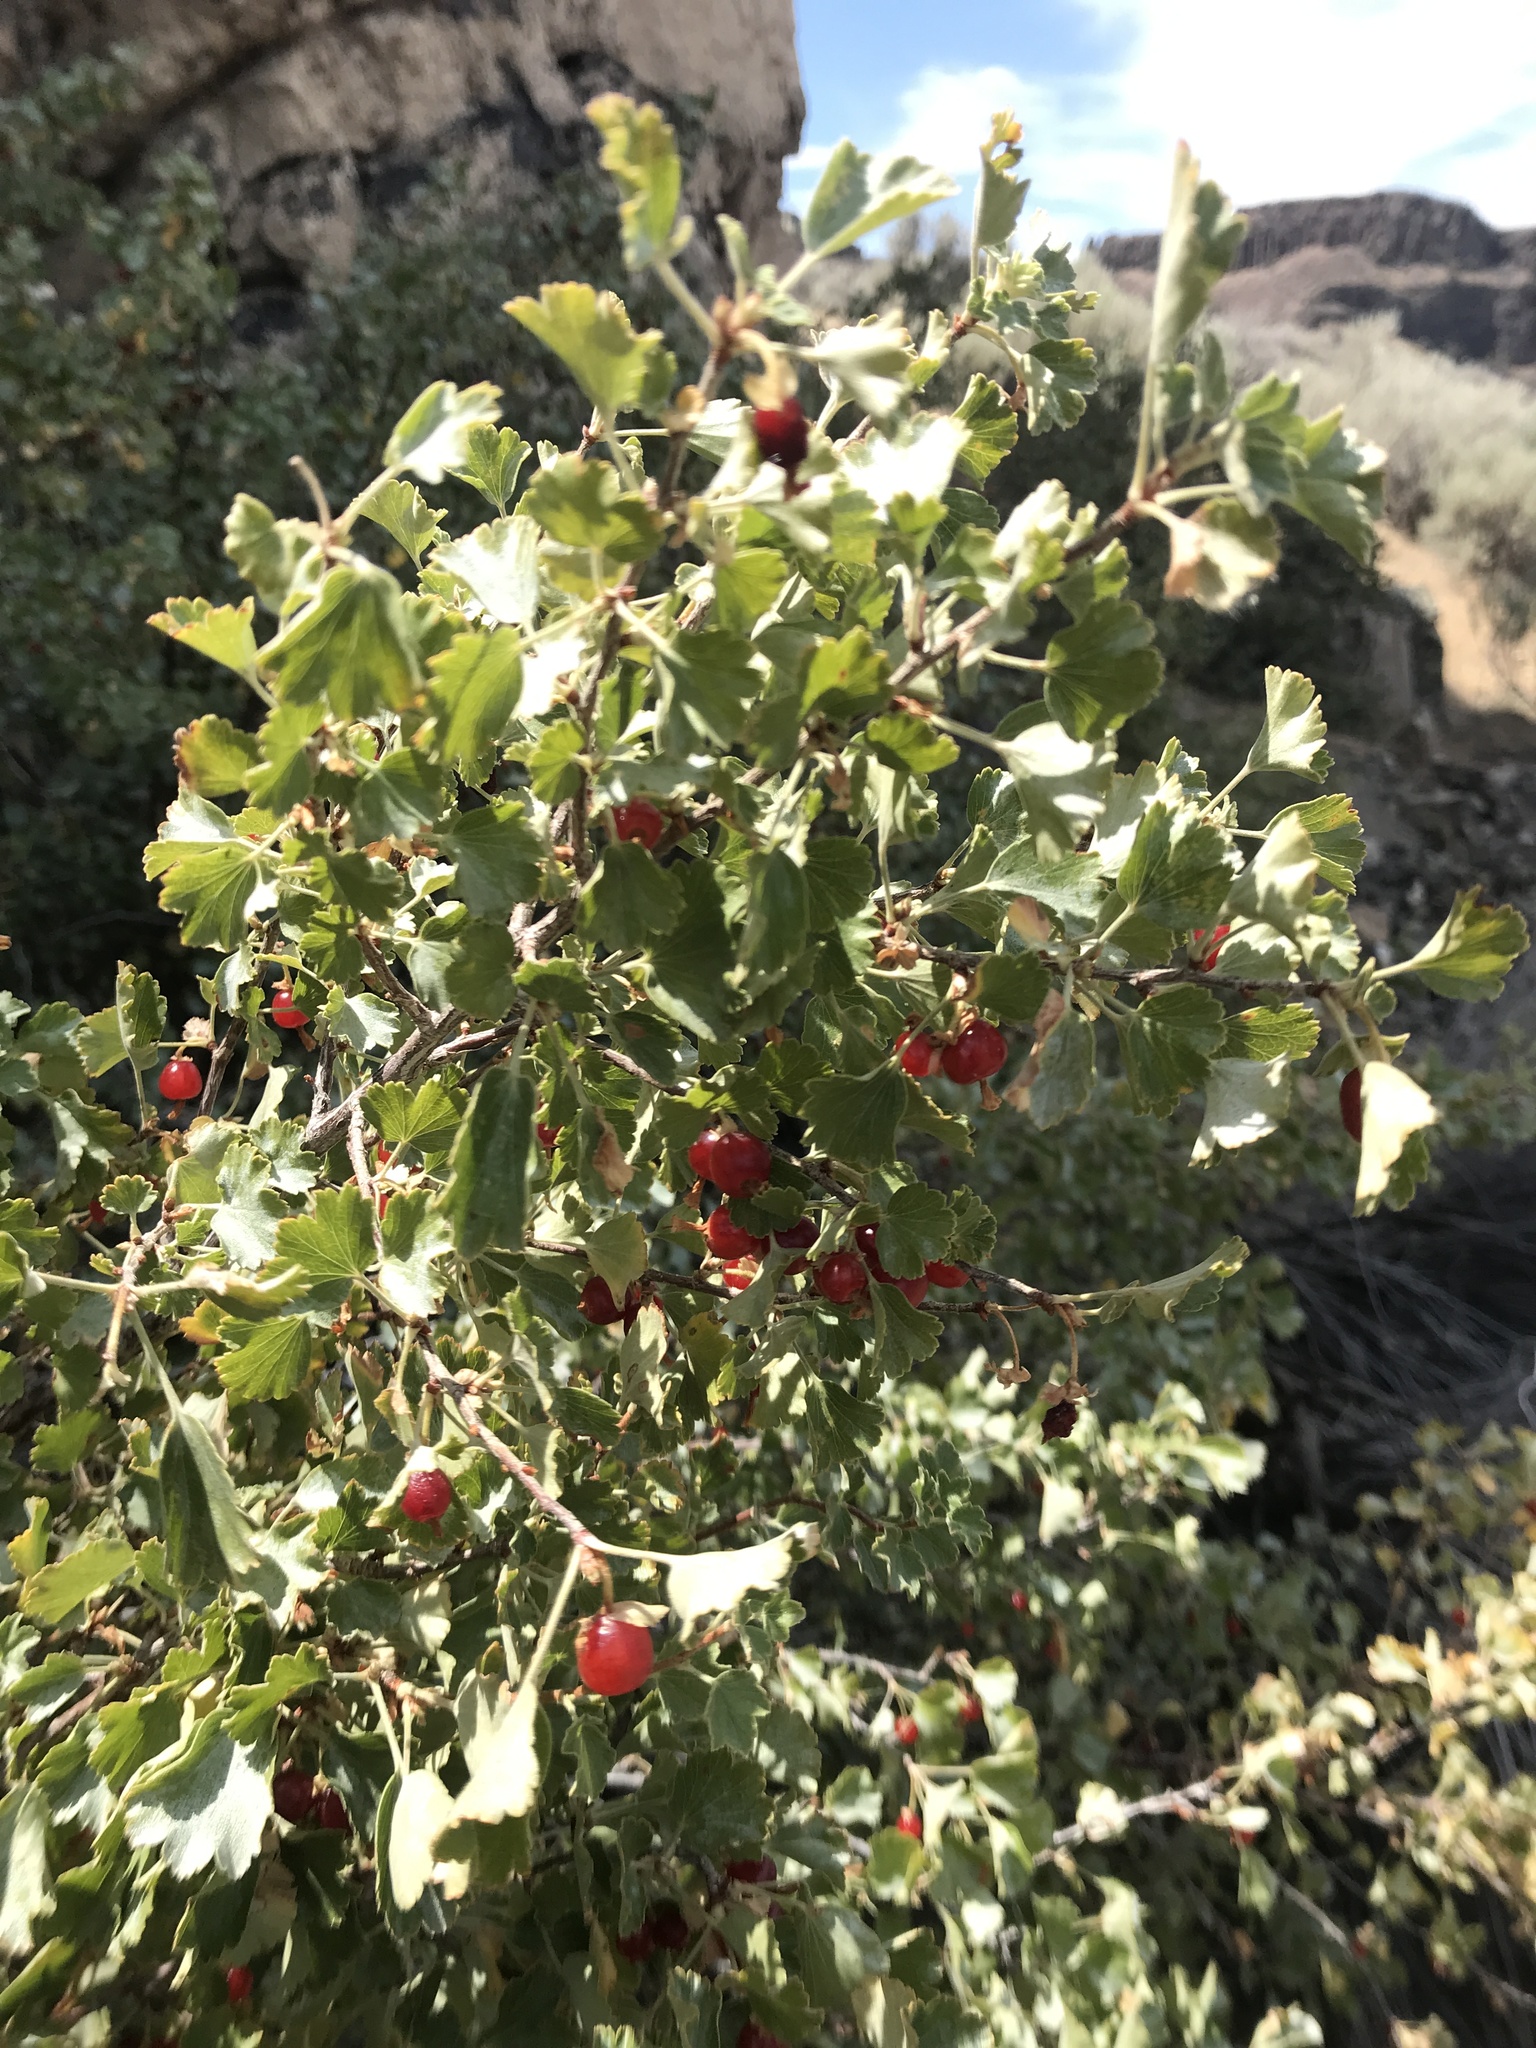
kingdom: Plantae
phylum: Tracheophyta
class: Magnoliopsida
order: Saxifragales
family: Grossulariaceae
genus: Ribes
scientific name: Ribes cereum
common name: Wax currant
